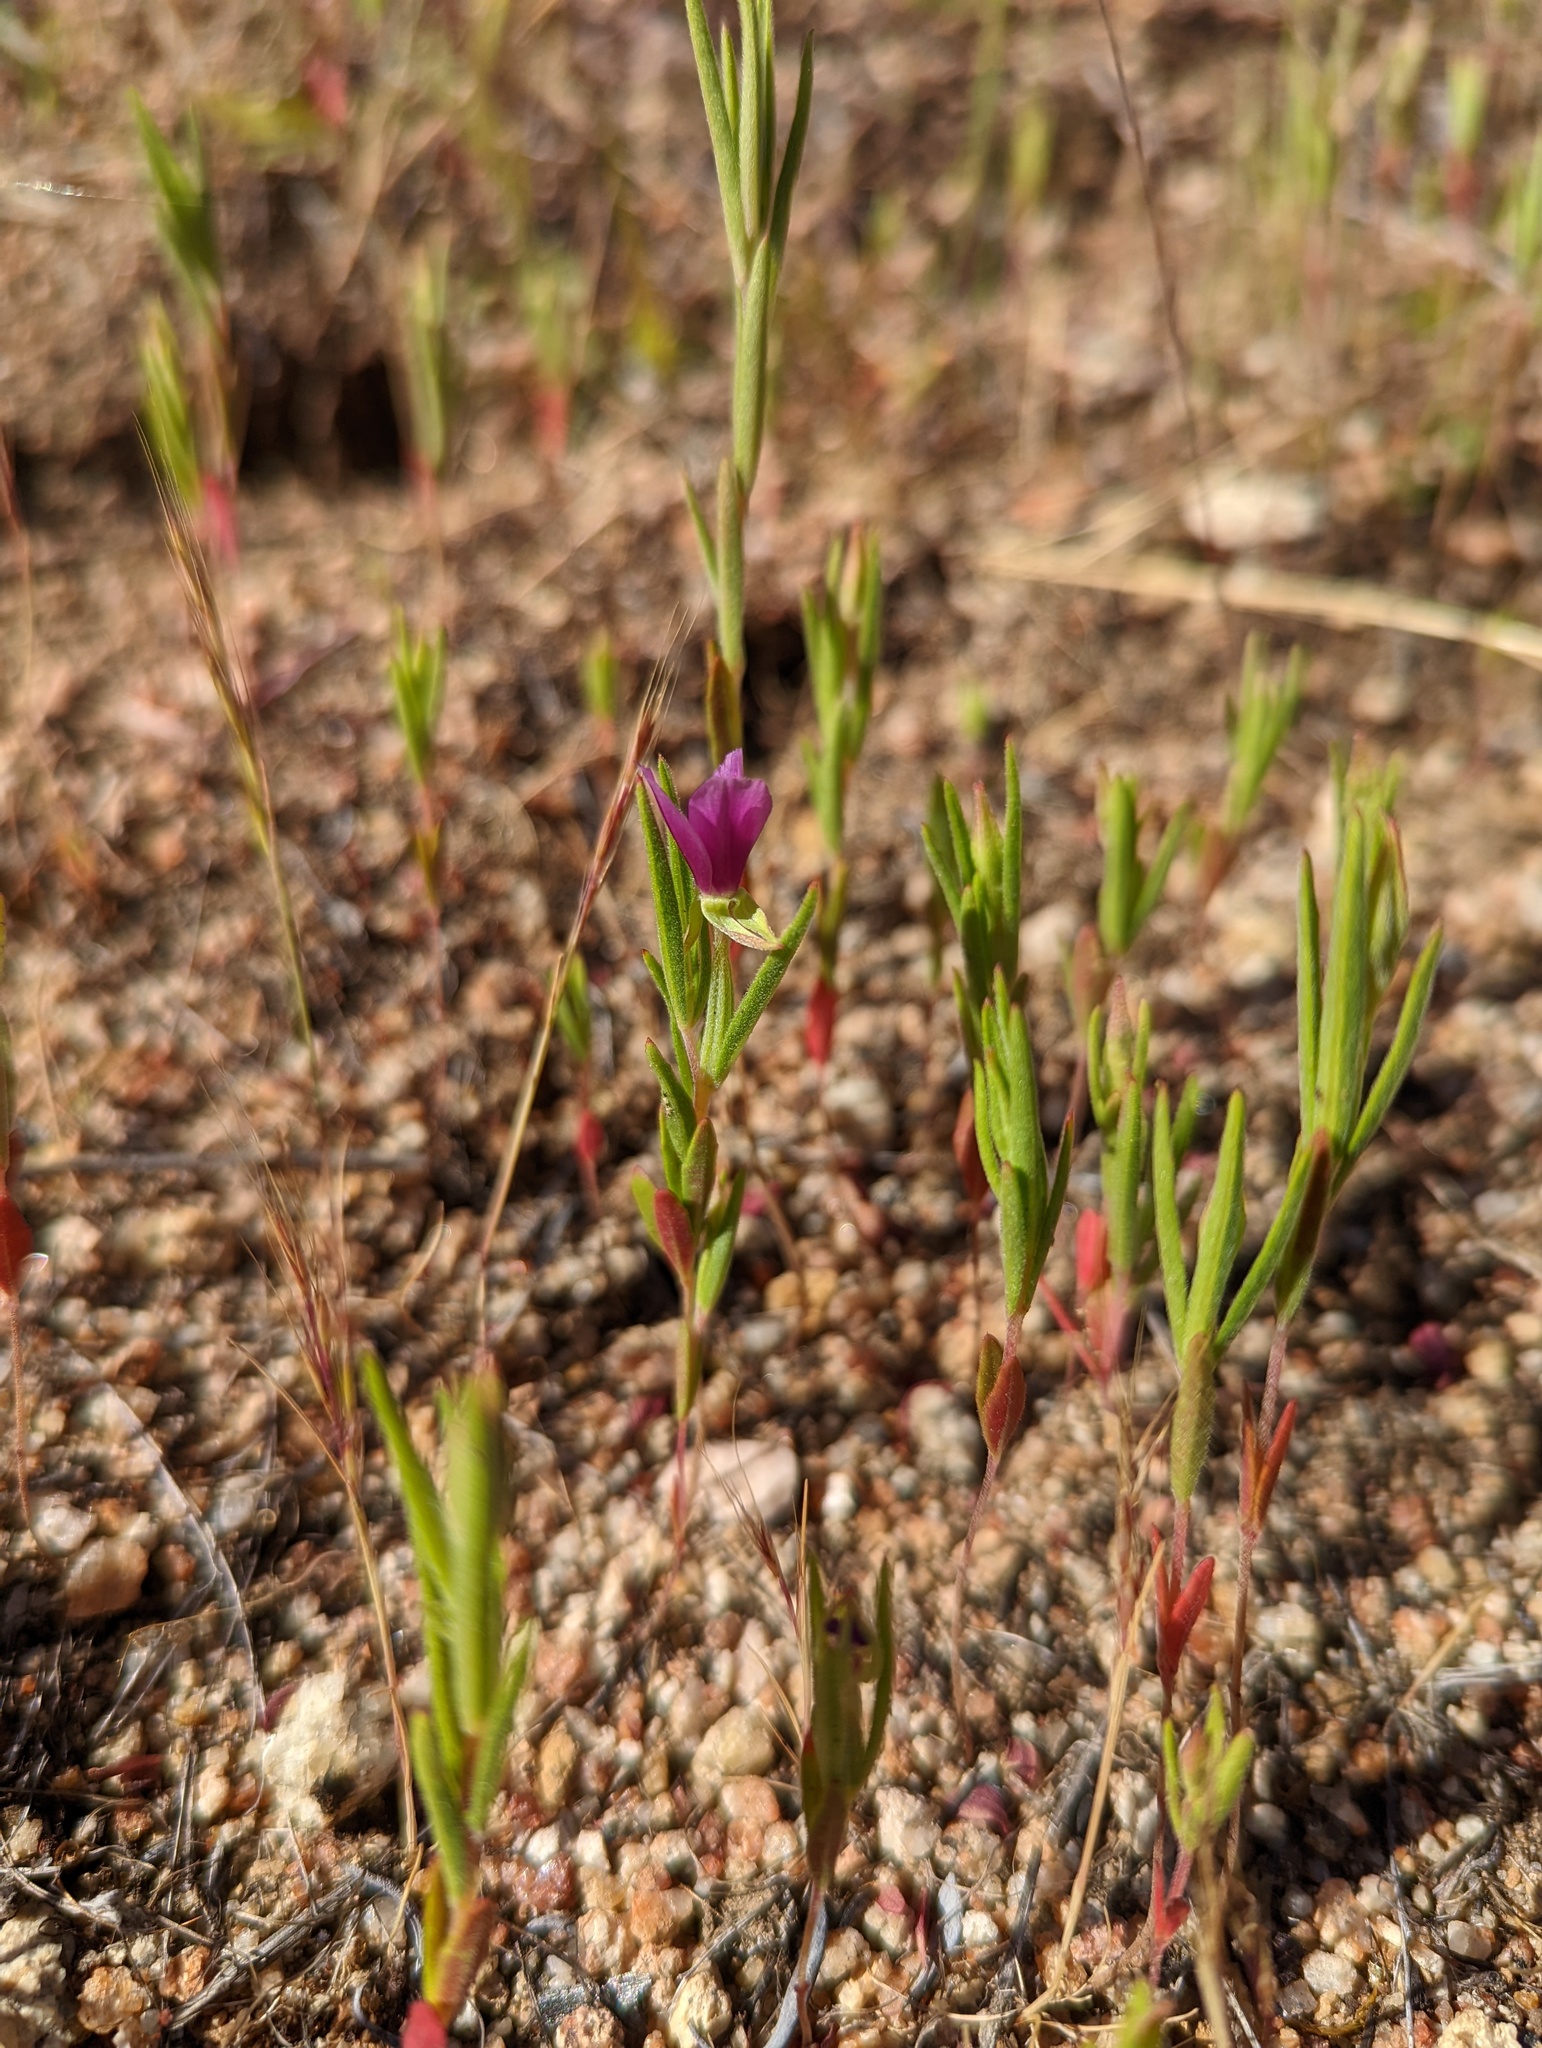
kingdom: Plantae
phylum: Tracheophyta
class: Magnoliopsida
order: Myrtales
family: Onagraceae
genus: Clarkia
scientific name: Clarkia purpurea
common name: Purple clarkia
